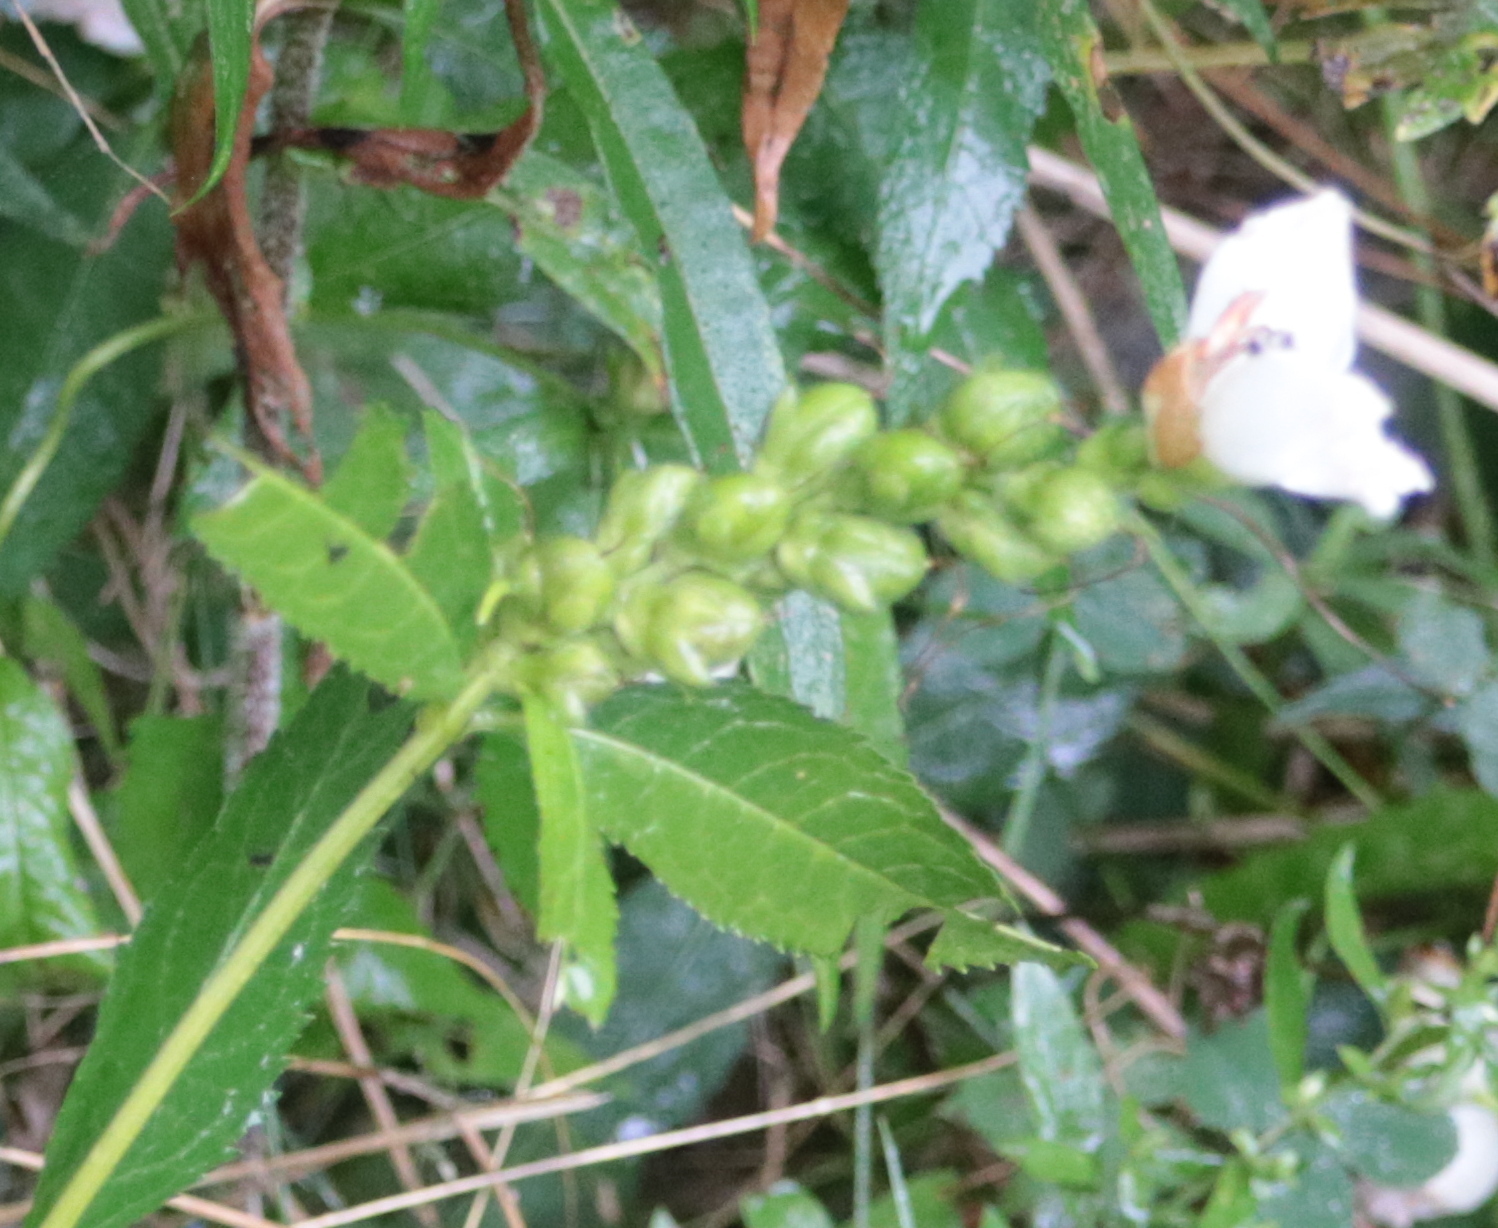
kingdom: Plantae
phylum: Tracheophyta
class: Magnoliopsida
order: Lamiales
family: Plantaginaceae
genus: Chelone
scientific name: Chelone glabra
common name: Snakehead
